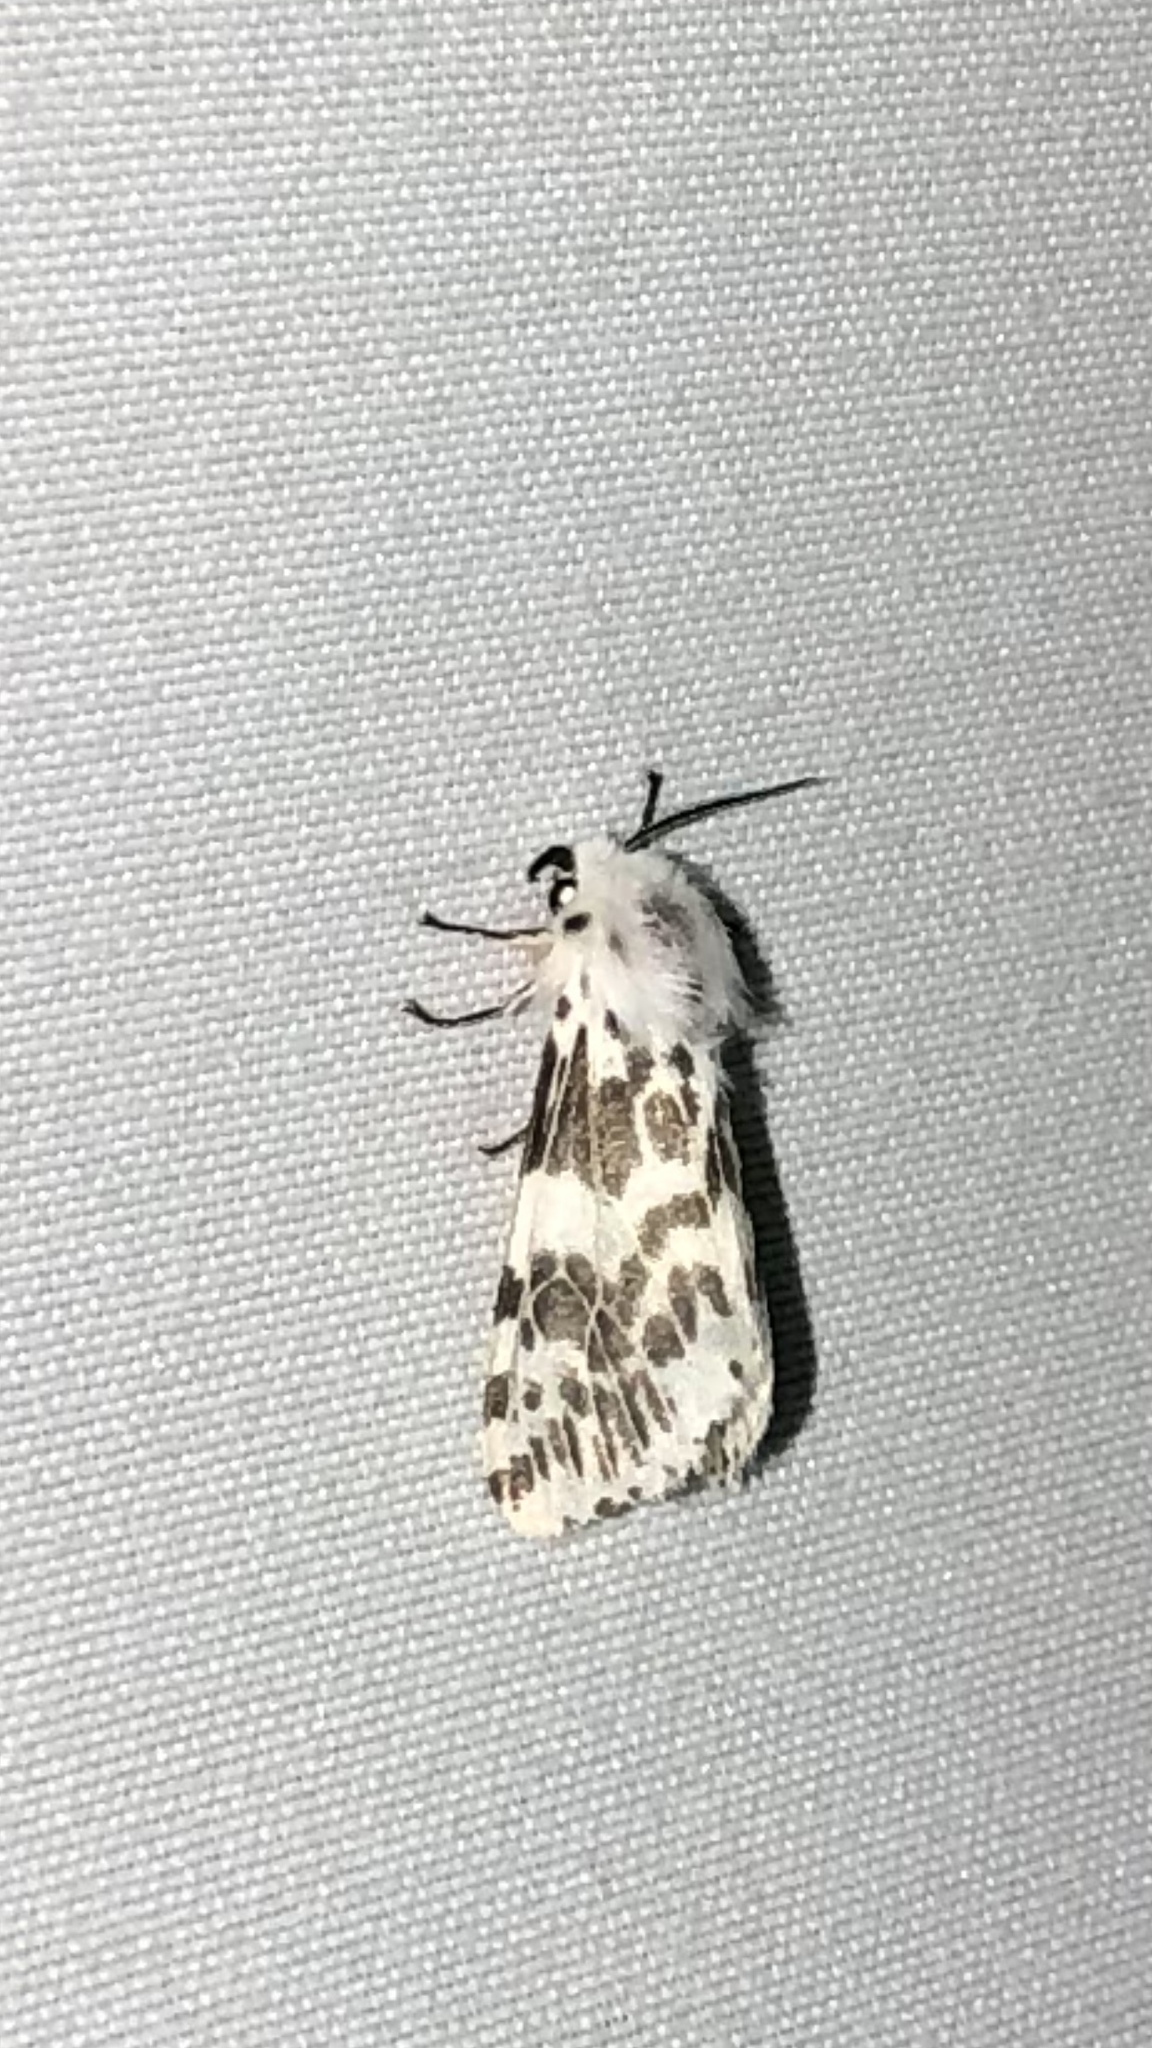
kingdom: Animalia
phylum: Arthropoda
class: Insecta
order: Lepidoptera
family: Erebidae
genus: Hyphantria
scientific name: Hyphantria cunea
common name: American white moth
